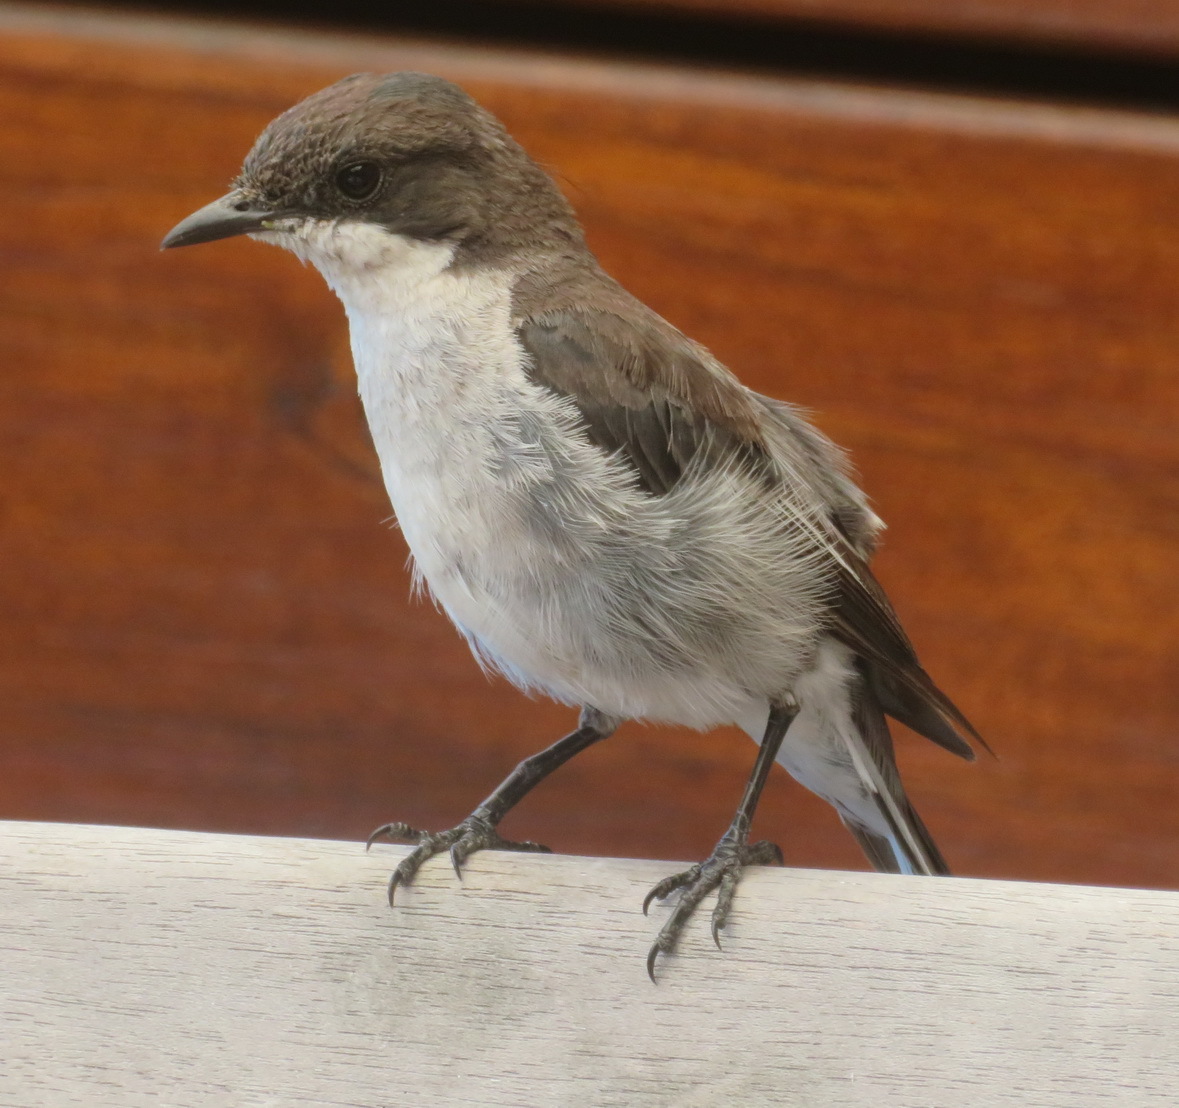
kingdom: Animalia
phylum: Chordata
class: Aves
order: Passeriformes
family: Muscicapidae
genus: Sigelus
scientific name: Sigelus silens
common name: Fiscal flycatcher
